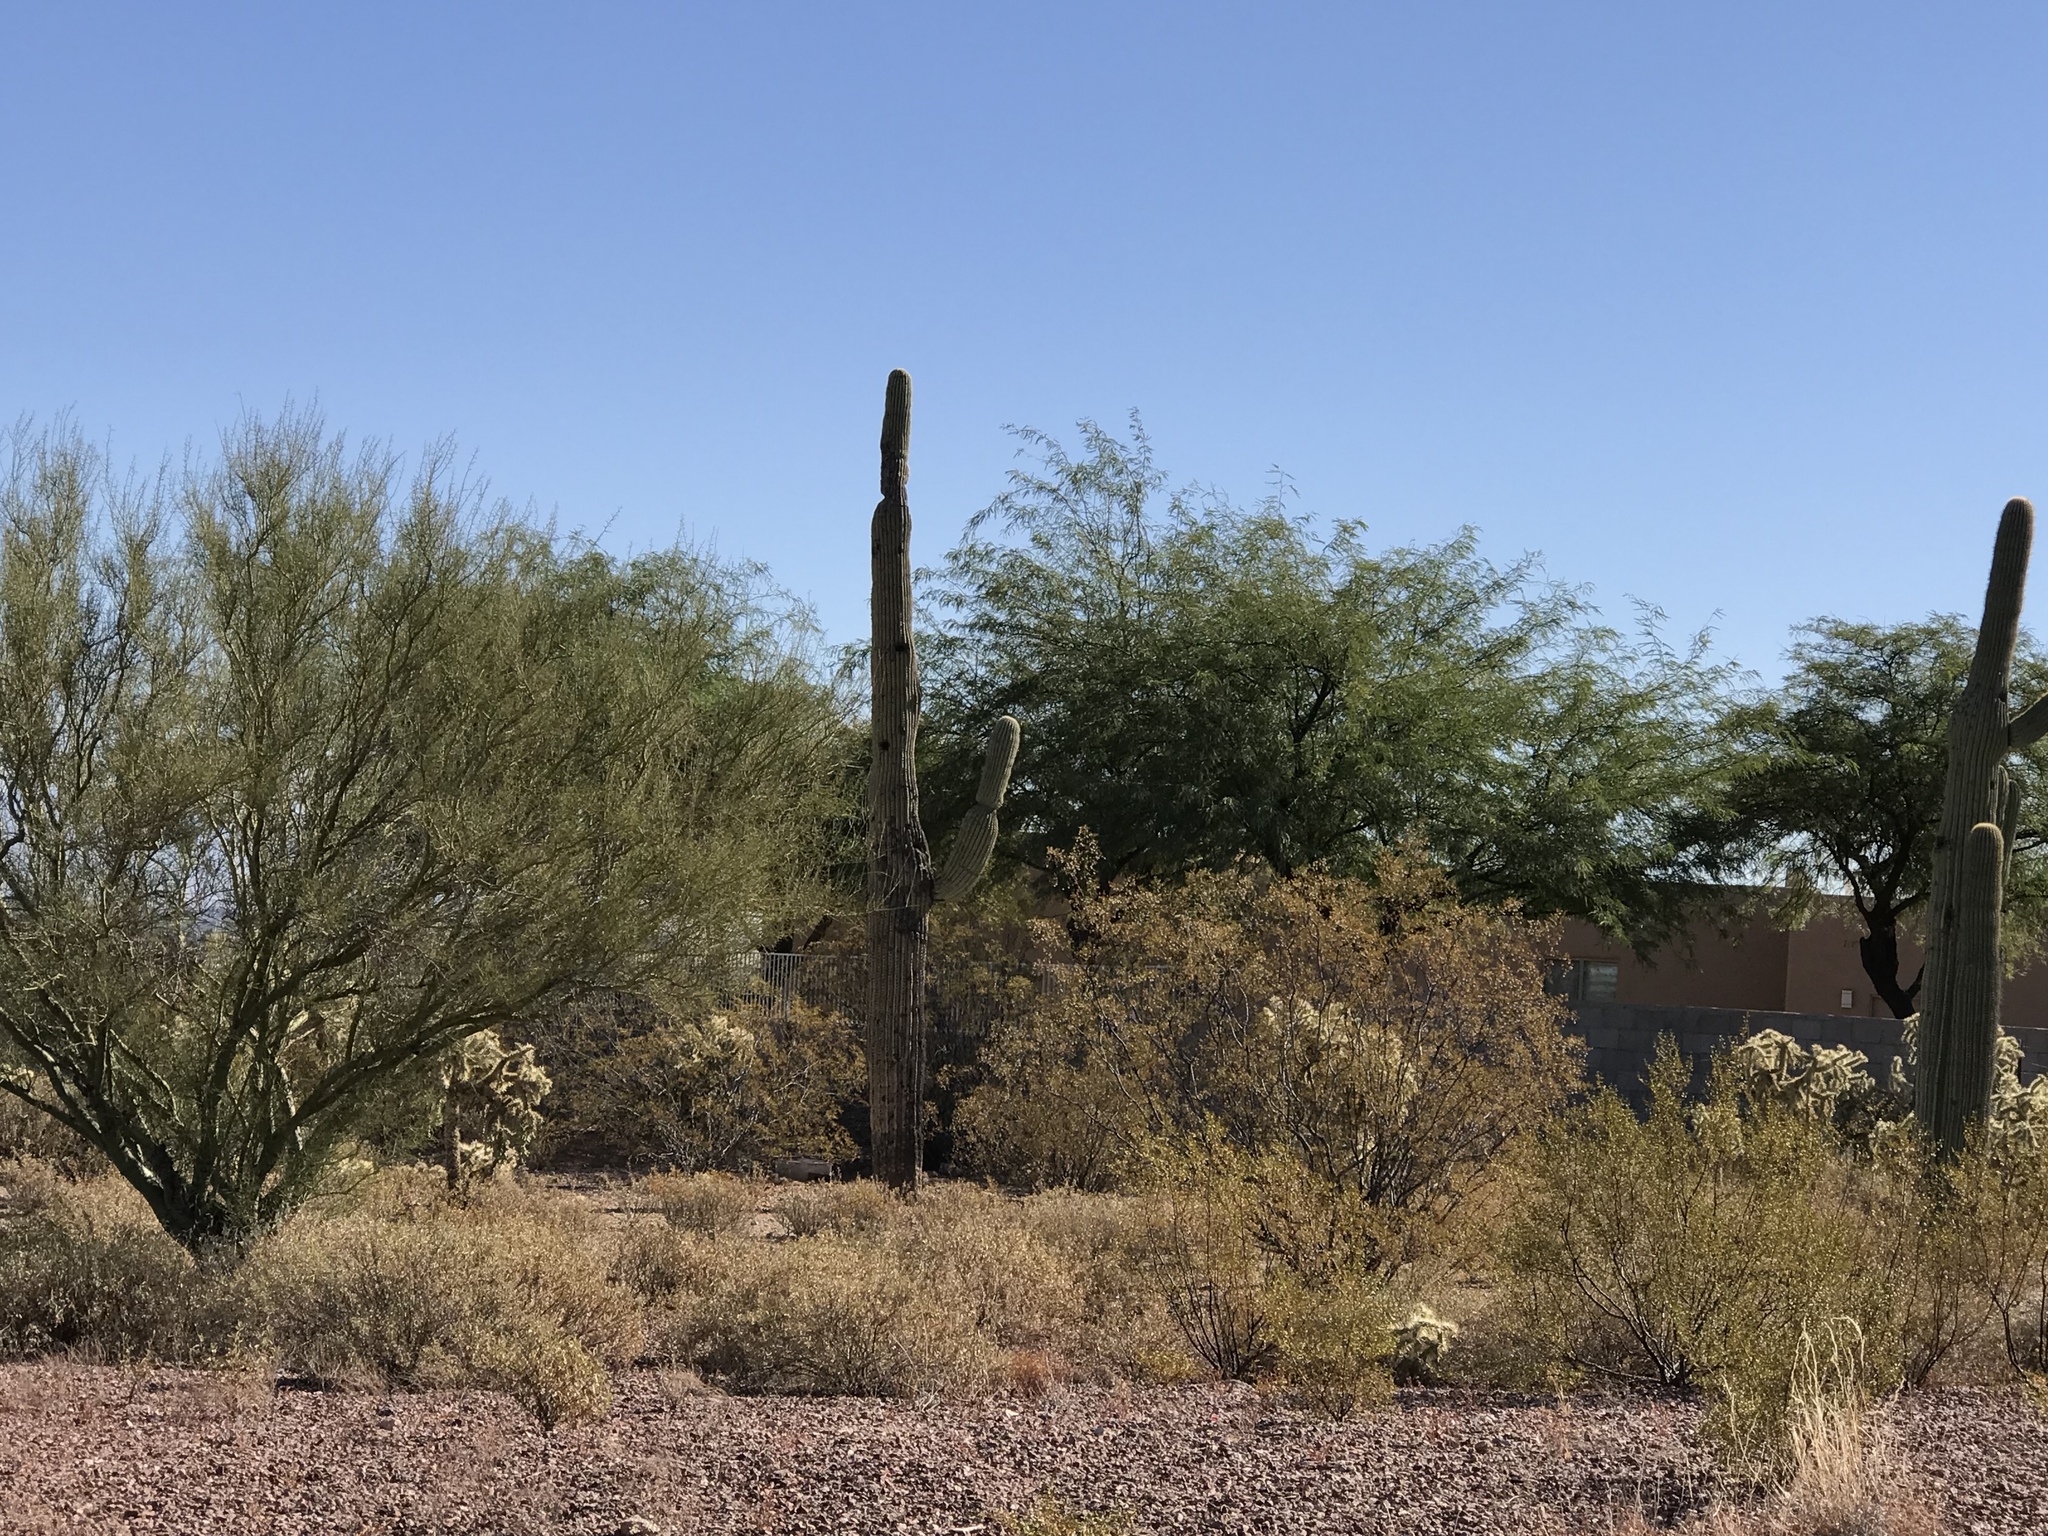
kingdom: Plantae
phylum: Tracheophyta
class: Magnoliopsida
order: Caryophyllales
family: Cactaceae
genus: Carnegiea
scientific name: Carnegiea gigantea
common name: Saguaro
